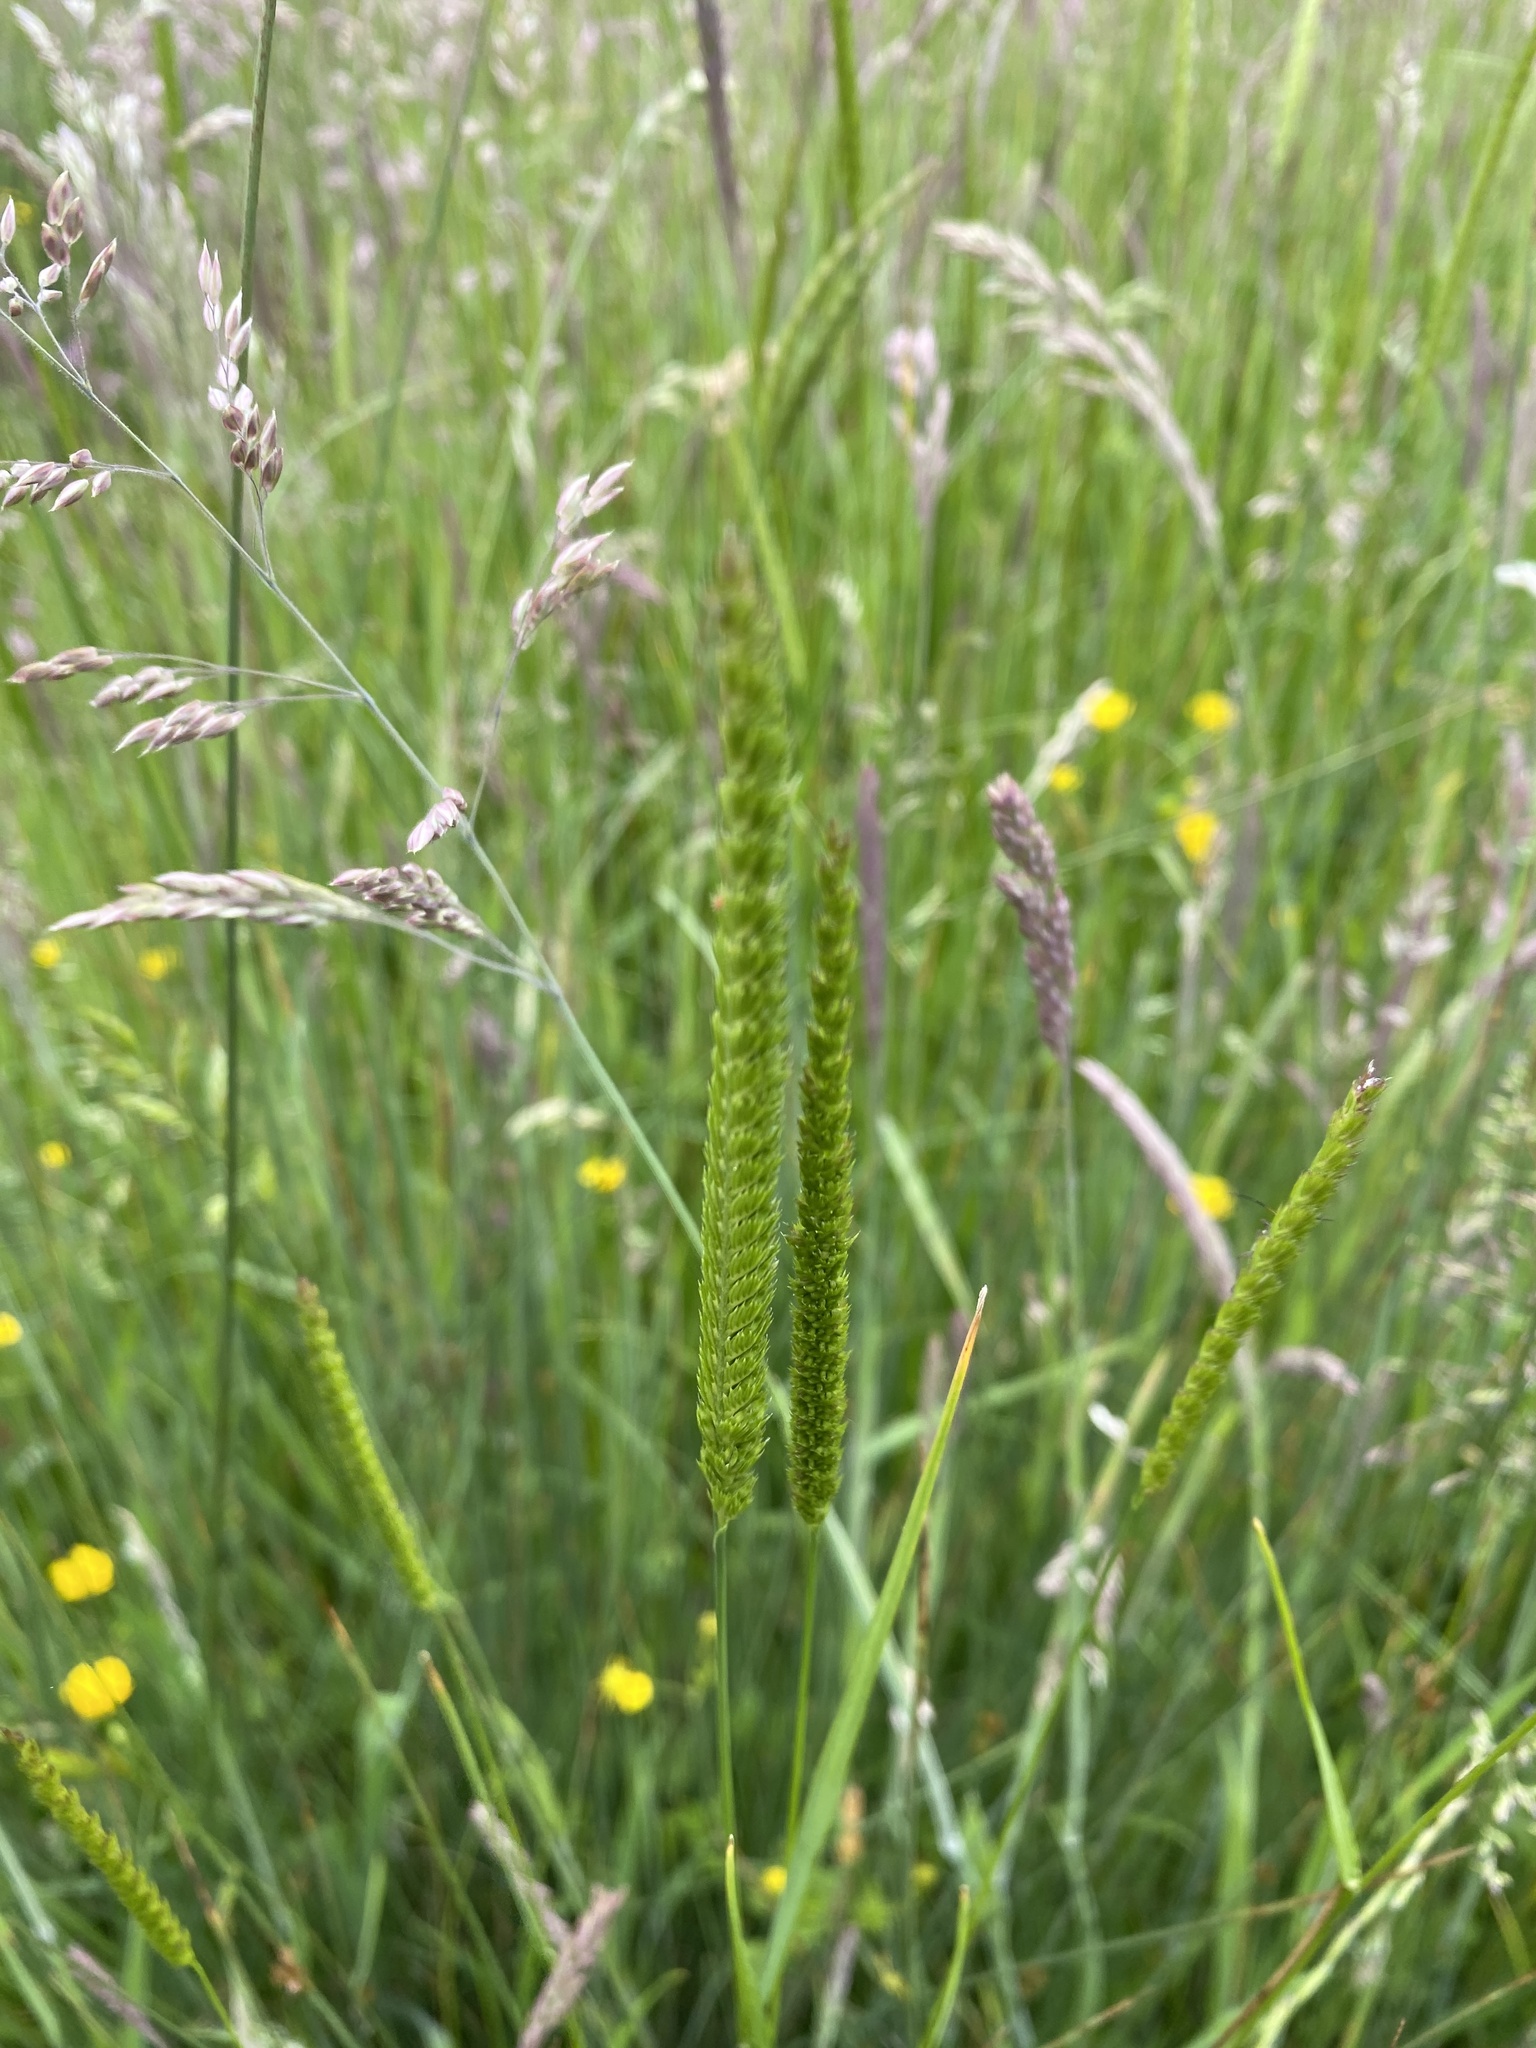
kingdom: Plantae
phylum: Tracheophyta
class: Liliopsida
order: Poales
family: Poaceae
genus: Cynosurus
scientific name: Cynosurus cristatus
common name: Crested dog's-tail
